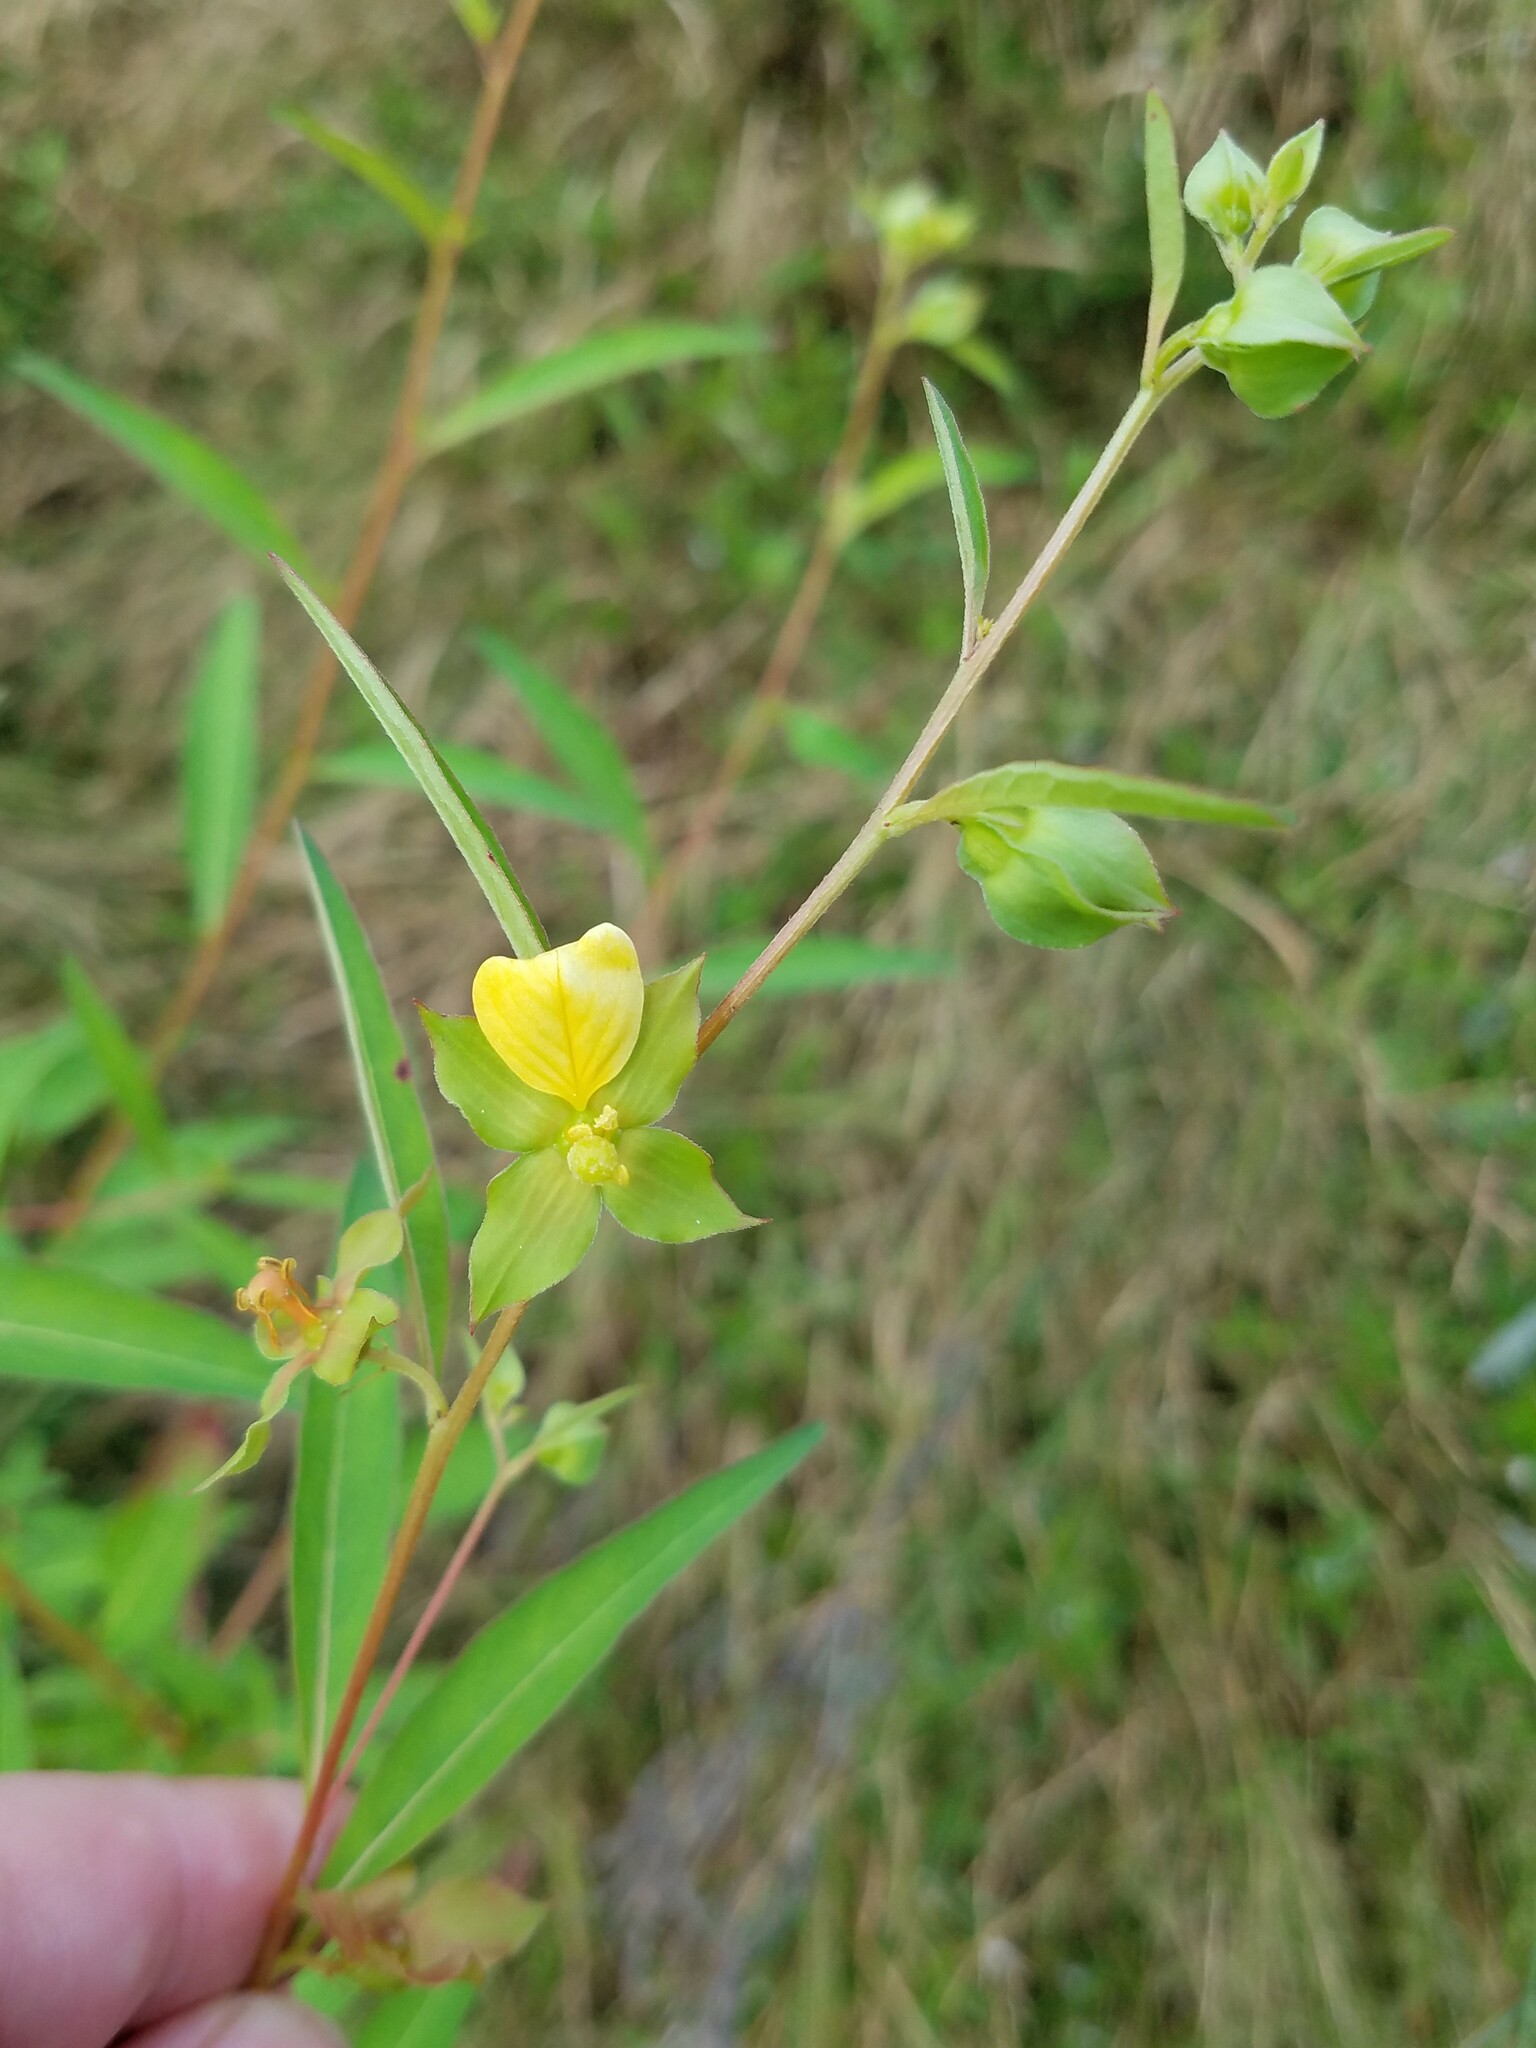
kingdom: Plantae
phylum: Tracheophyta
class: Magnoliopsida
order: Myrtales
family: Onagraceae
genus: Ludwigia
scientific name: Ludwigia alternifolia
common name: Rattlebox
